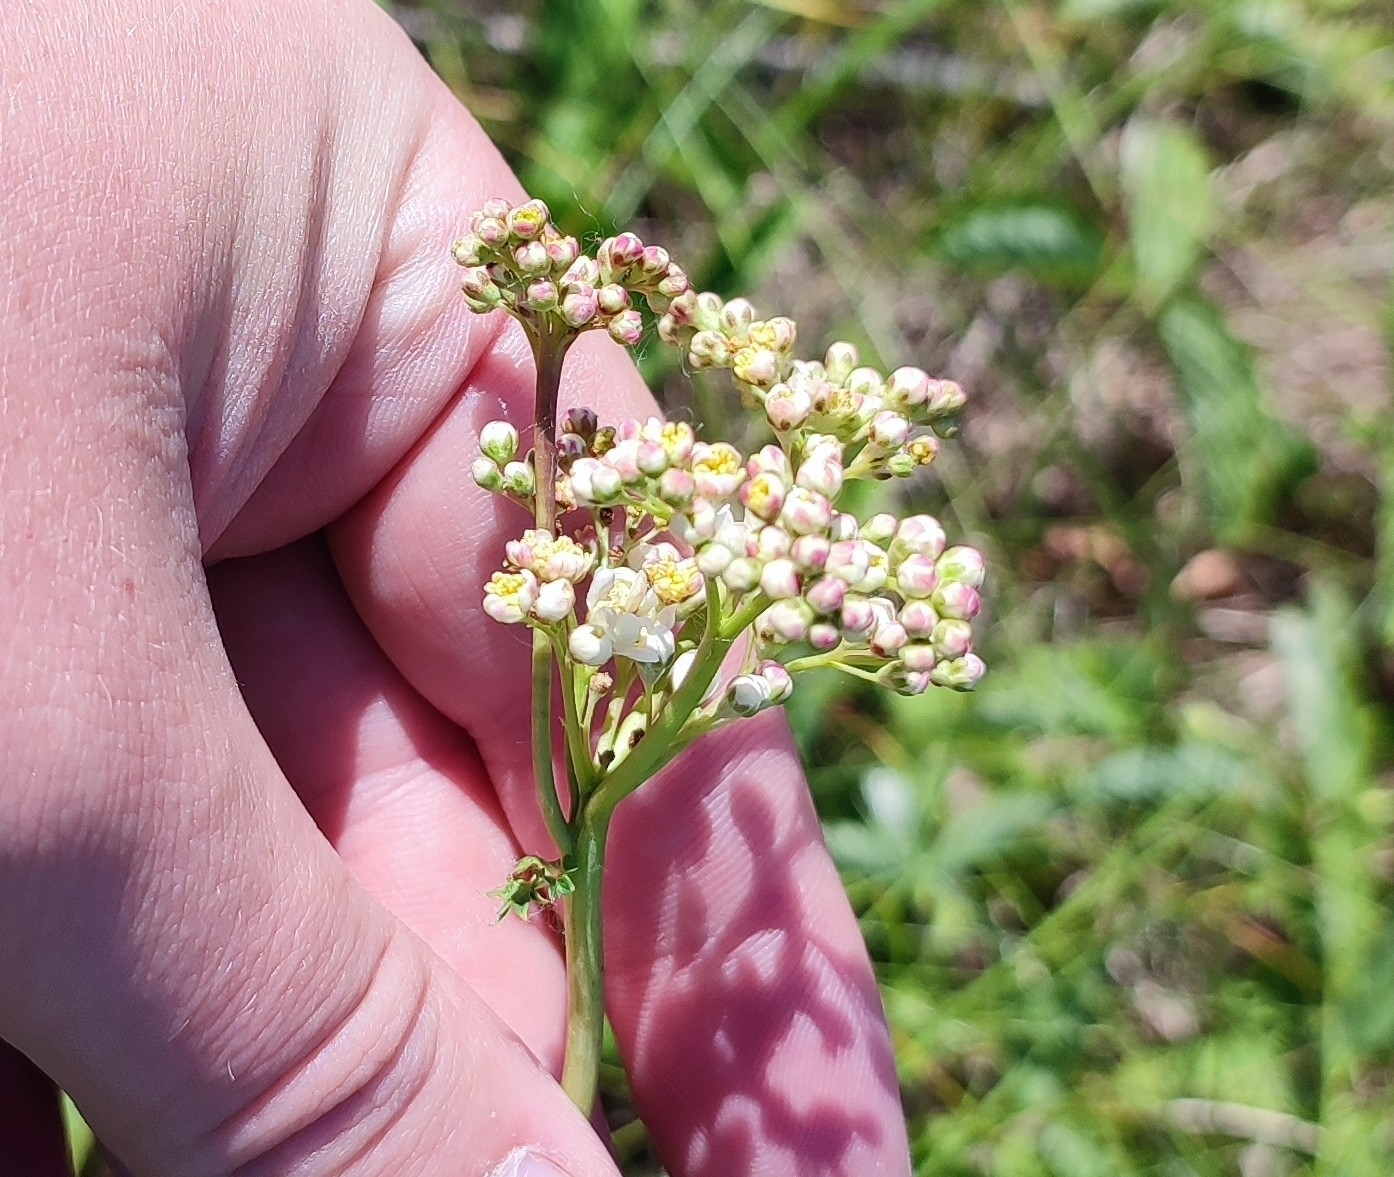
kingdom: Plantae
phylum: Tracheophyta
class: Magnoliopsida
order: Rosales
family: Rosaceae
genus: Filipendula
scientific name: Filipendula vulgaris
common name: Dropwort
